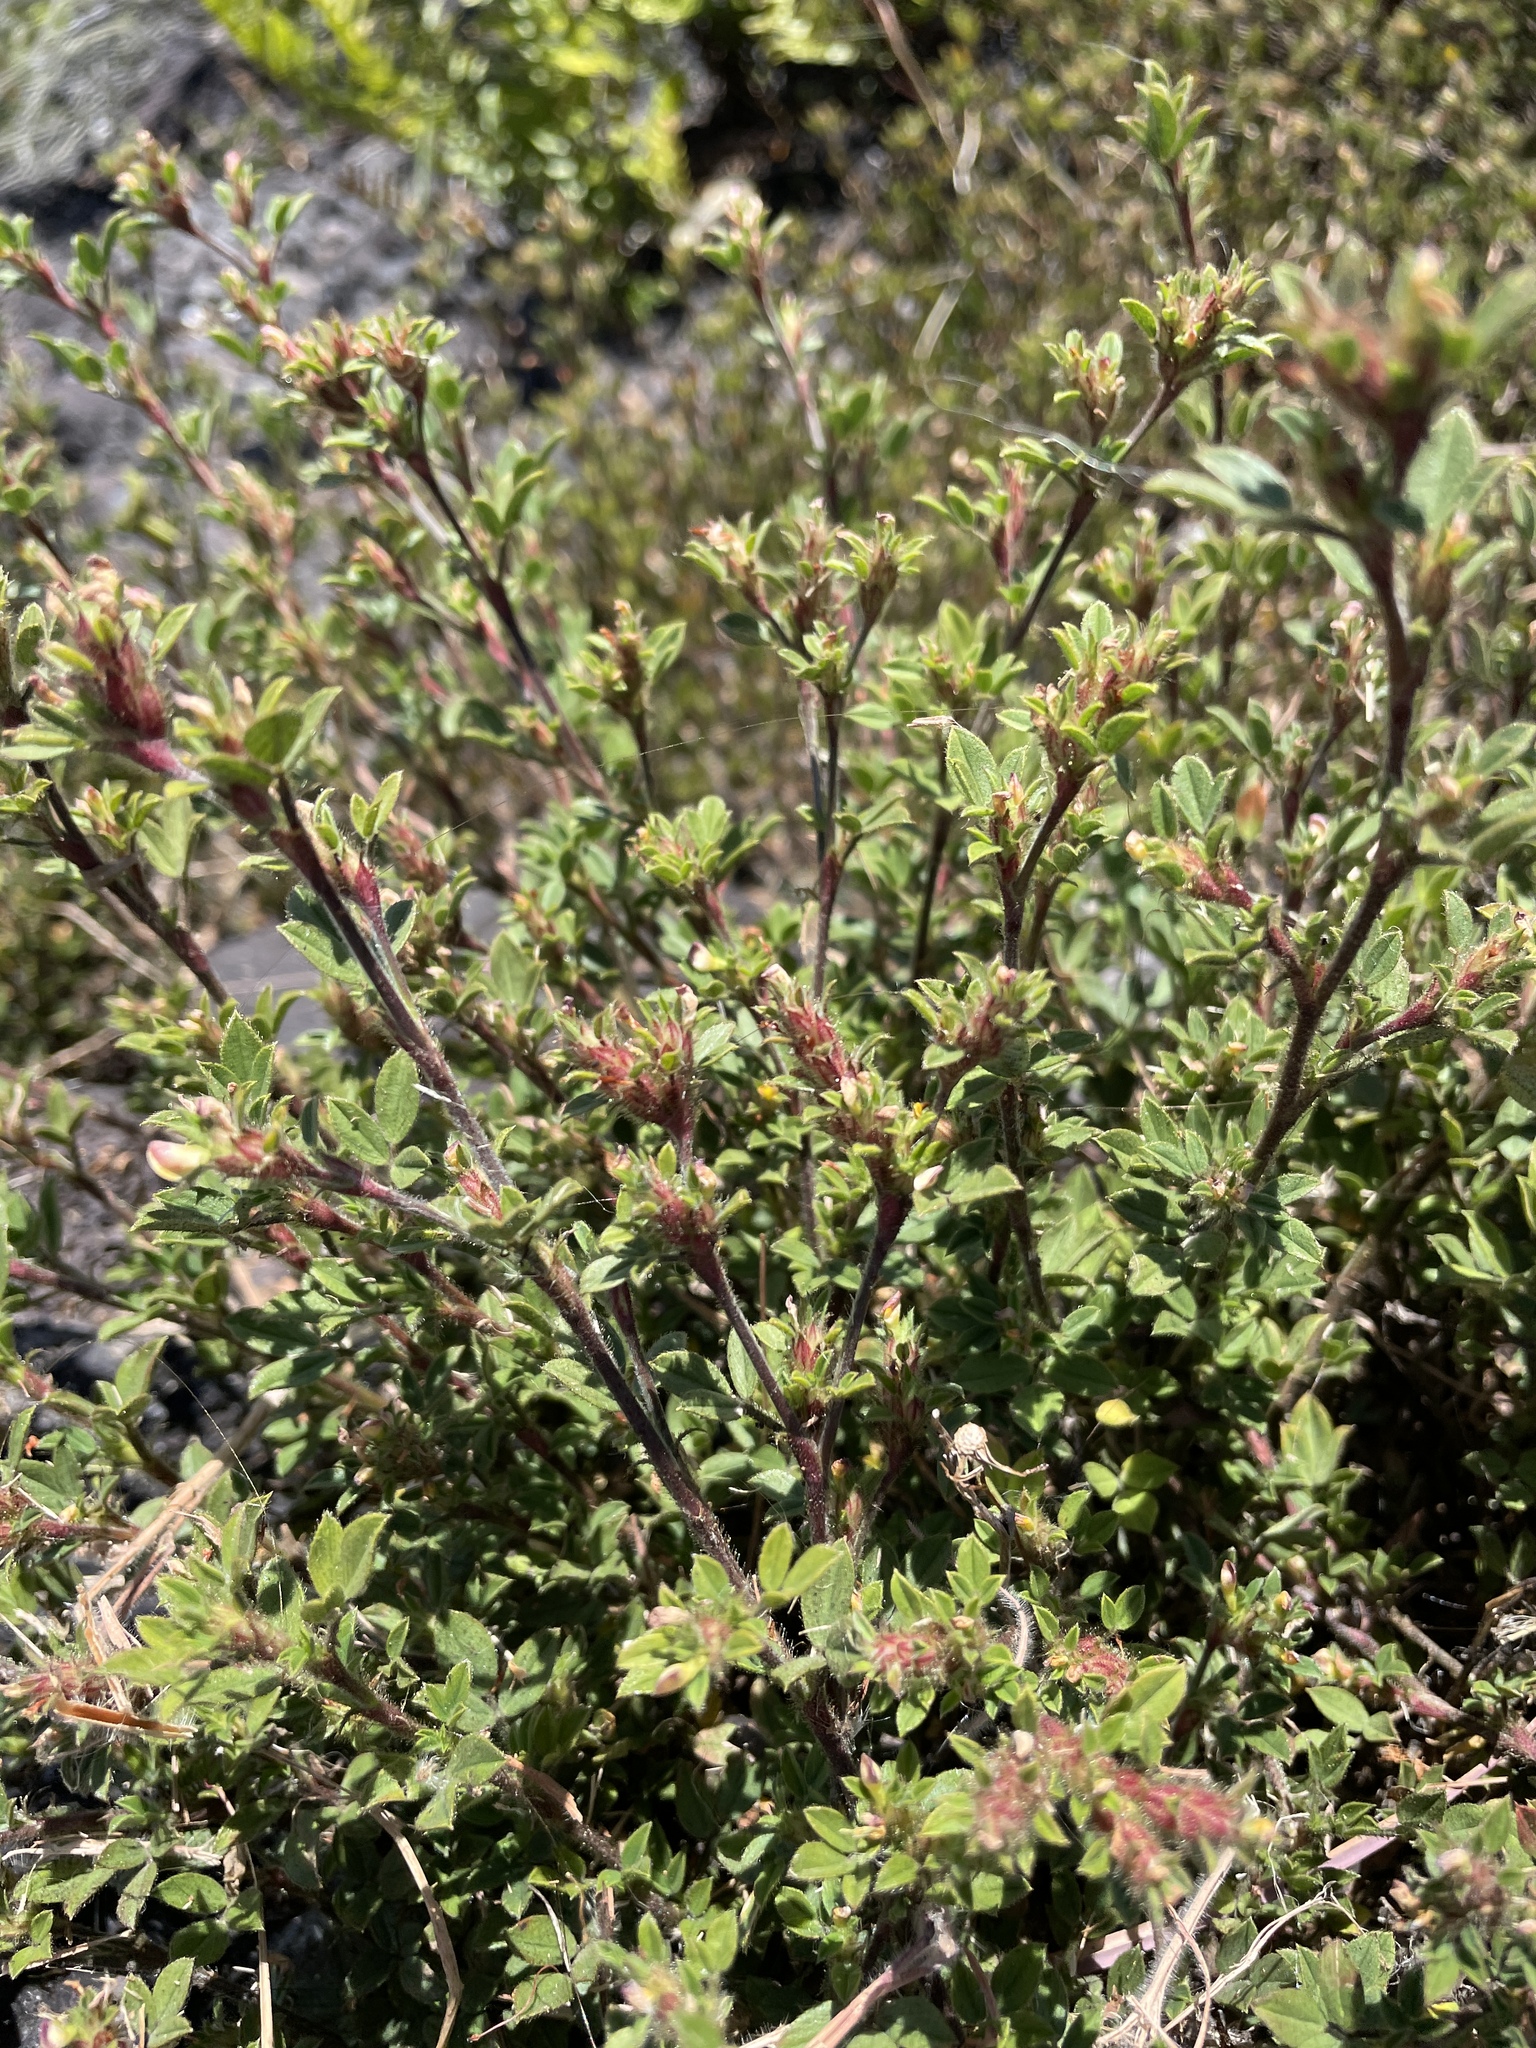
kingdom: Plantae
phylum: Tracheophyta
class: Magnoliopsida
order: Fabales
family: Fabaceae
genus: Stylosanthes
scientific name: Stylosanthes viscosa
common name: Viscid pencil-flower
